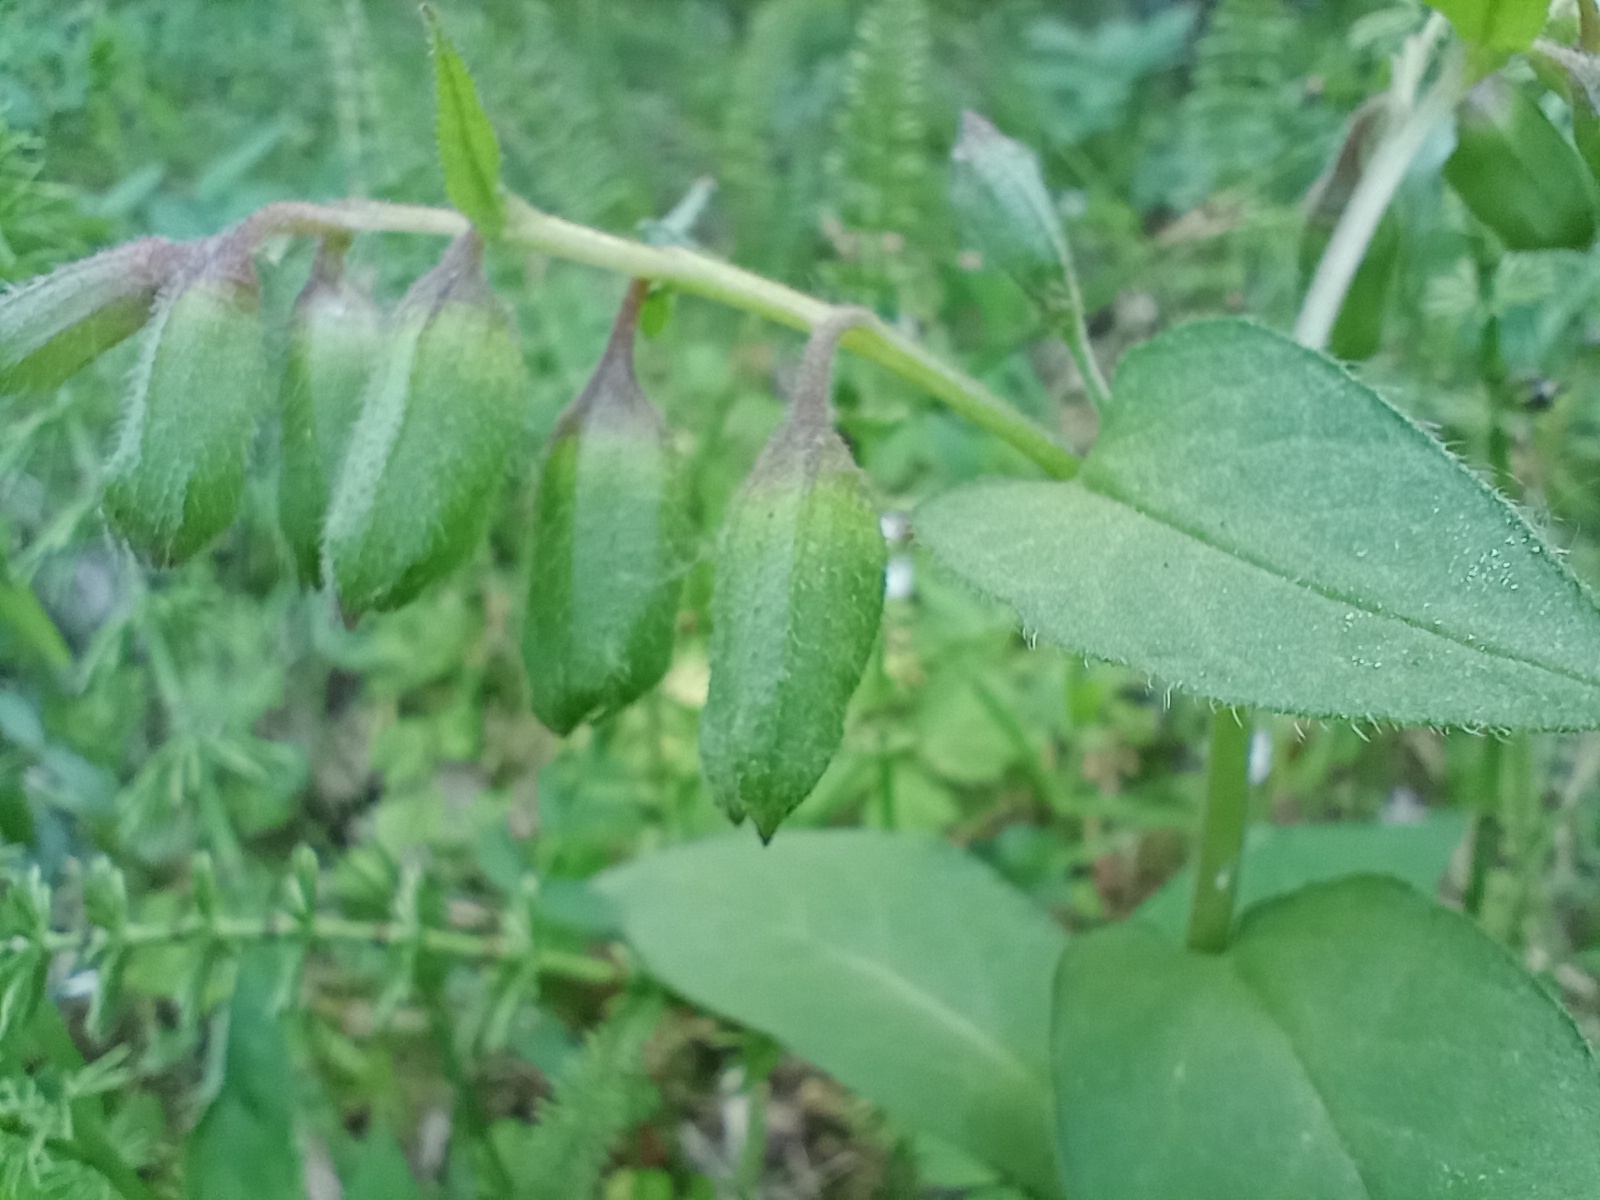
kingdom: Plantae
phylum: Tracheophyta
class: Magnoliopsida
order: Boraginales
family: Boraginaceae
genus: Pulmonaria
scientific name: Pulmonaria obscura
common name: Suffolk lungwort
